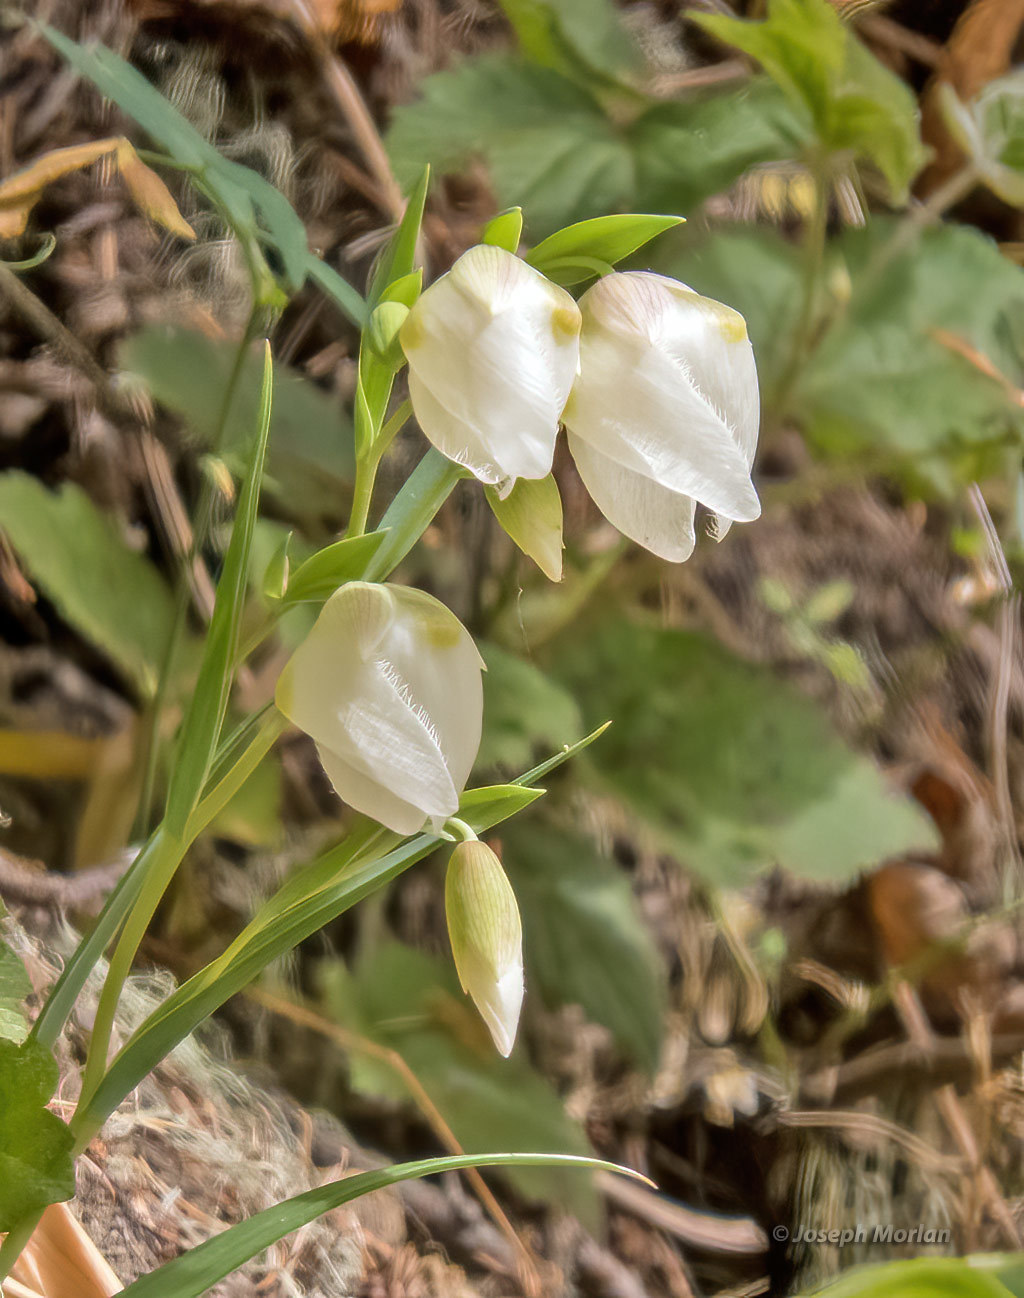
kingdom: Plantae
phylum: Tracheophyta
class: Liliopsida
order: Liliales
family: Liliaceae
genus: Calochortus
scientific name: Calochortus albus
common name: Fairy-lantern
